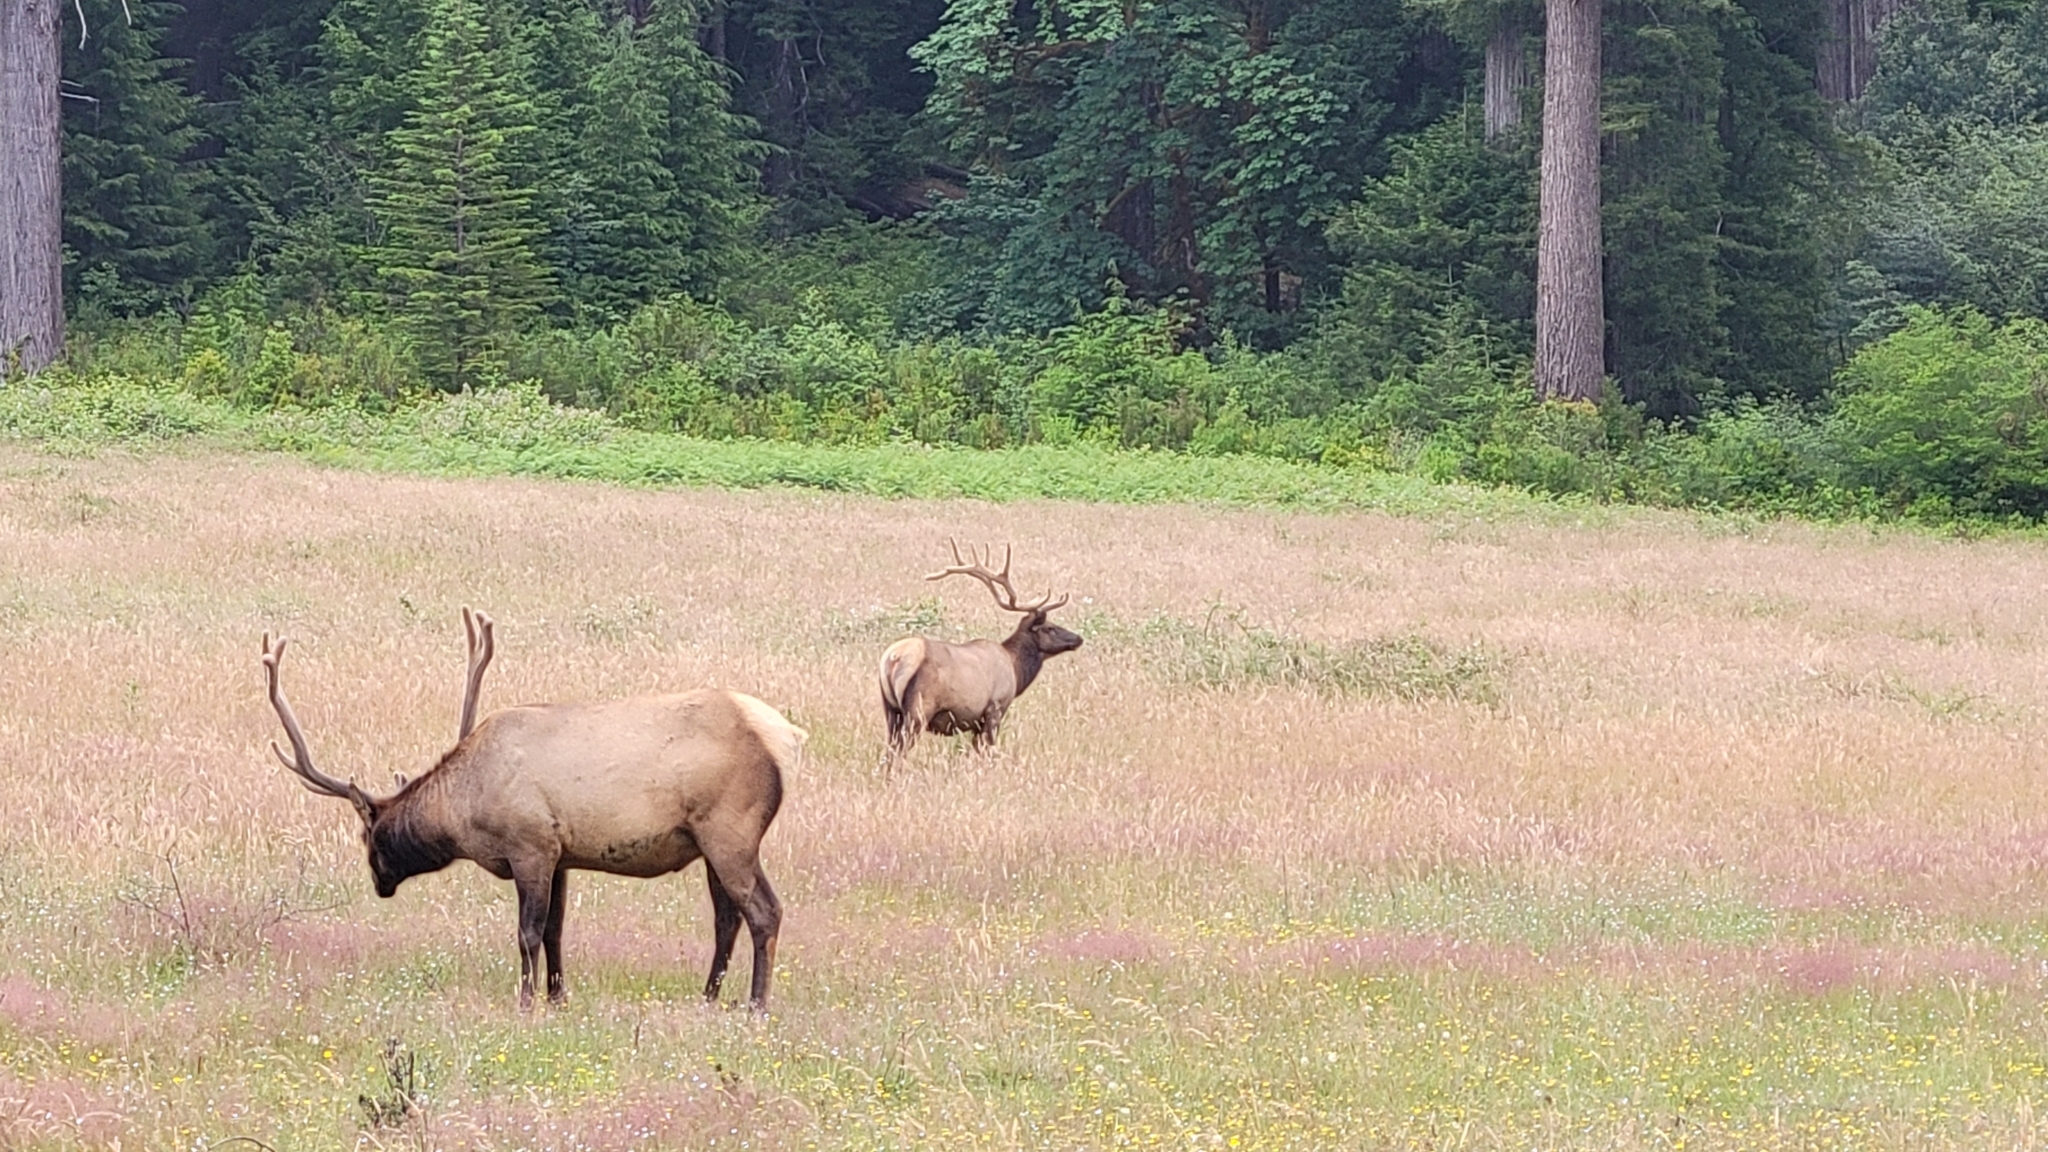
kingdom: Animalia
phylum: Chordata
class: Mammalia
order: Artiodactyla
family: Cervidae
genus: Cervus
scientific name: Cervus elaphus
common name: Red deer
